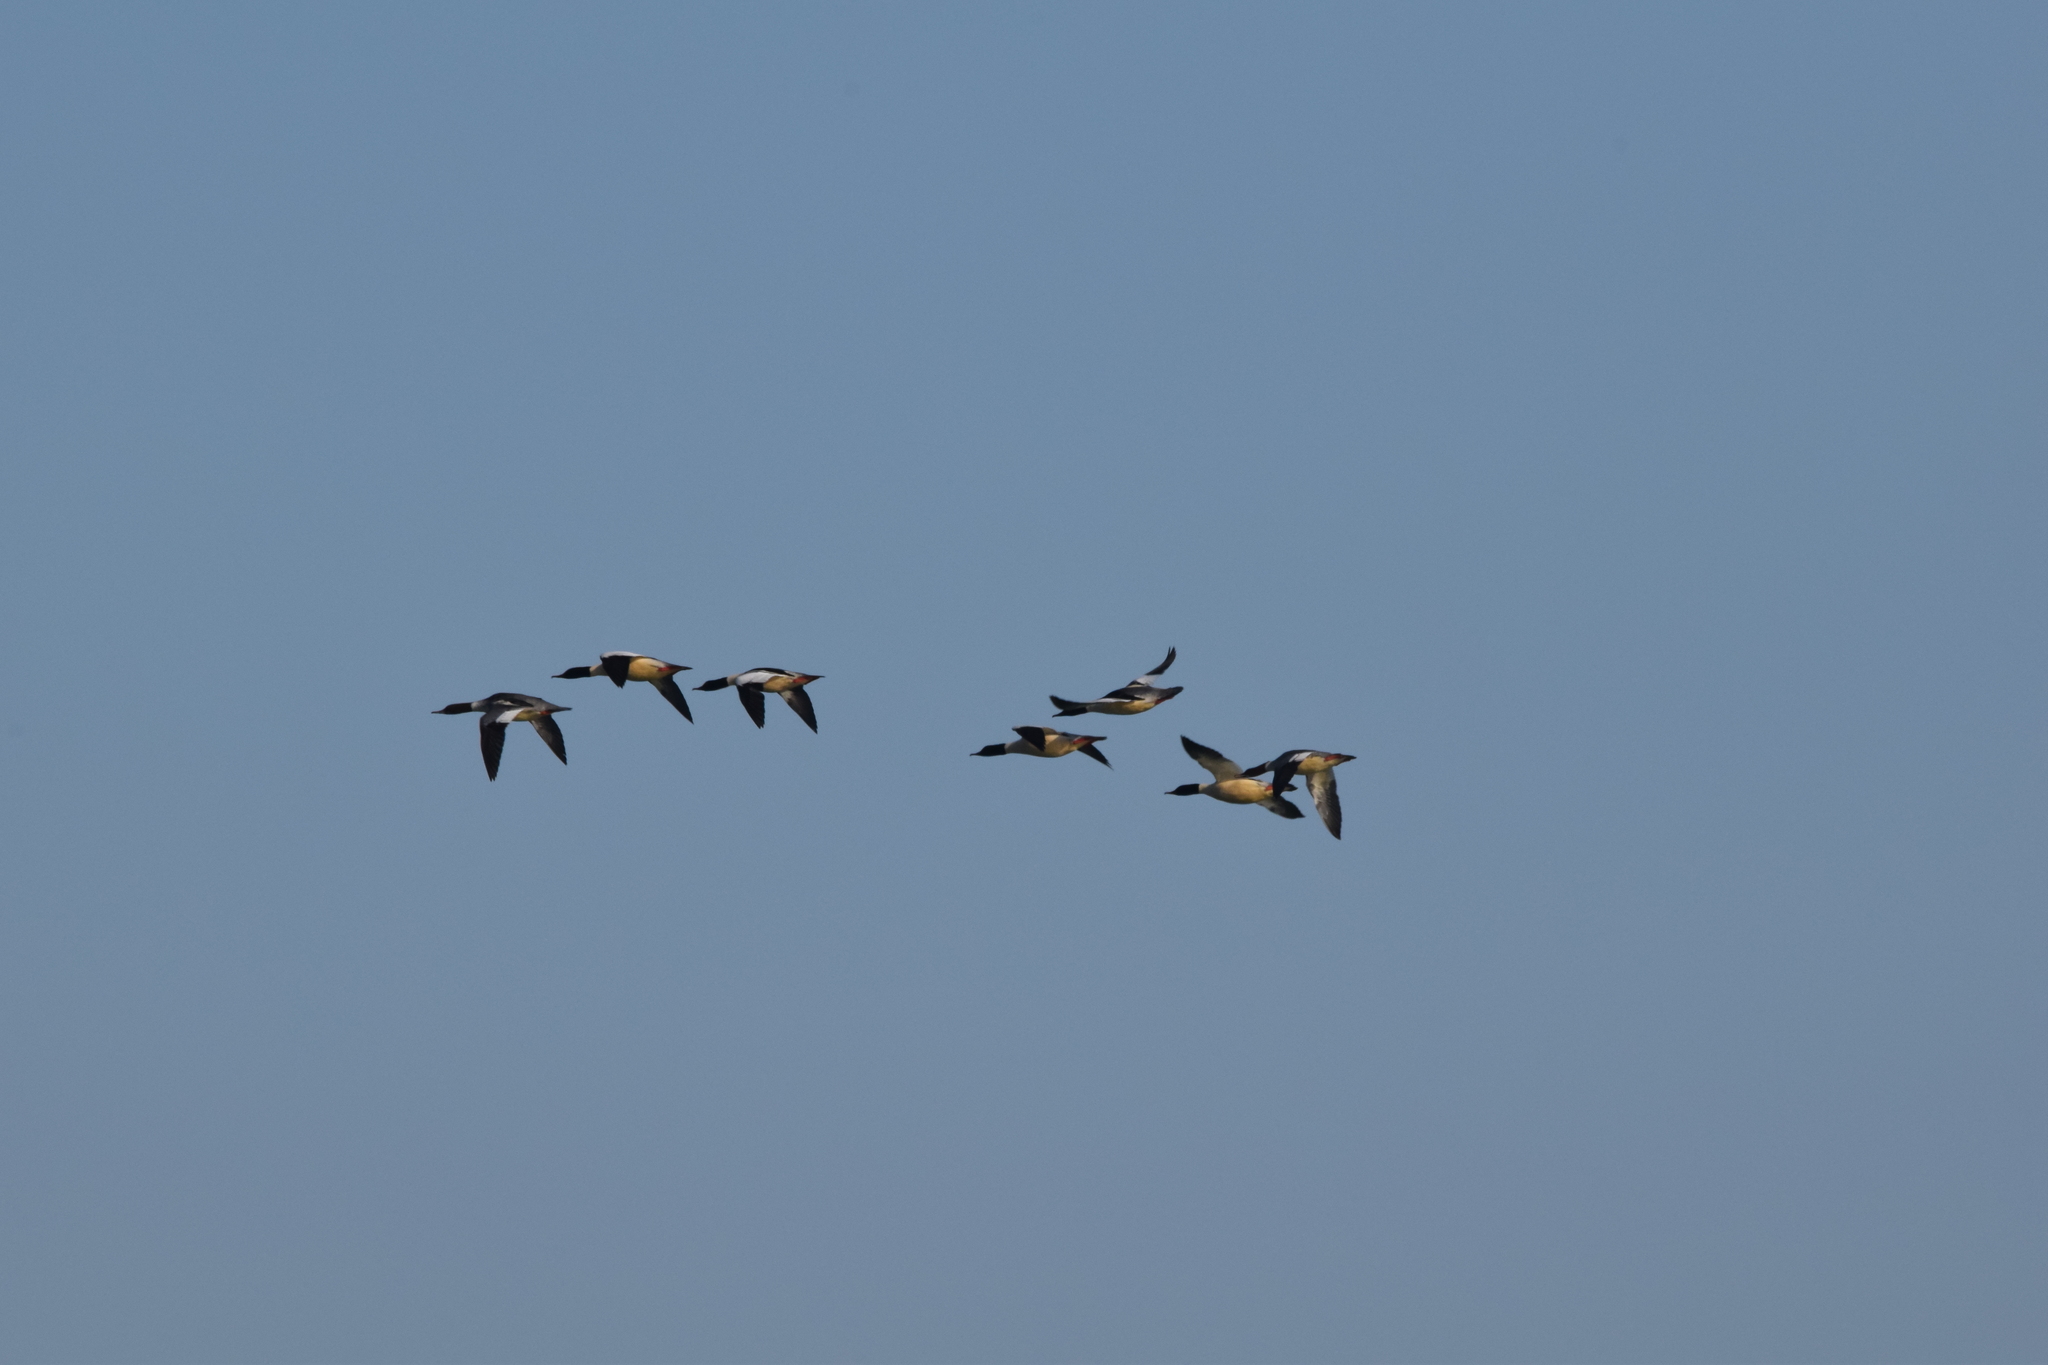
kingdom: Animalia
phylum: Chordata
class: Aves
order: Anseriformes
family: Anatidae
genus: Mergus
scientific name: Mergus merganser
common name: Common merganser
